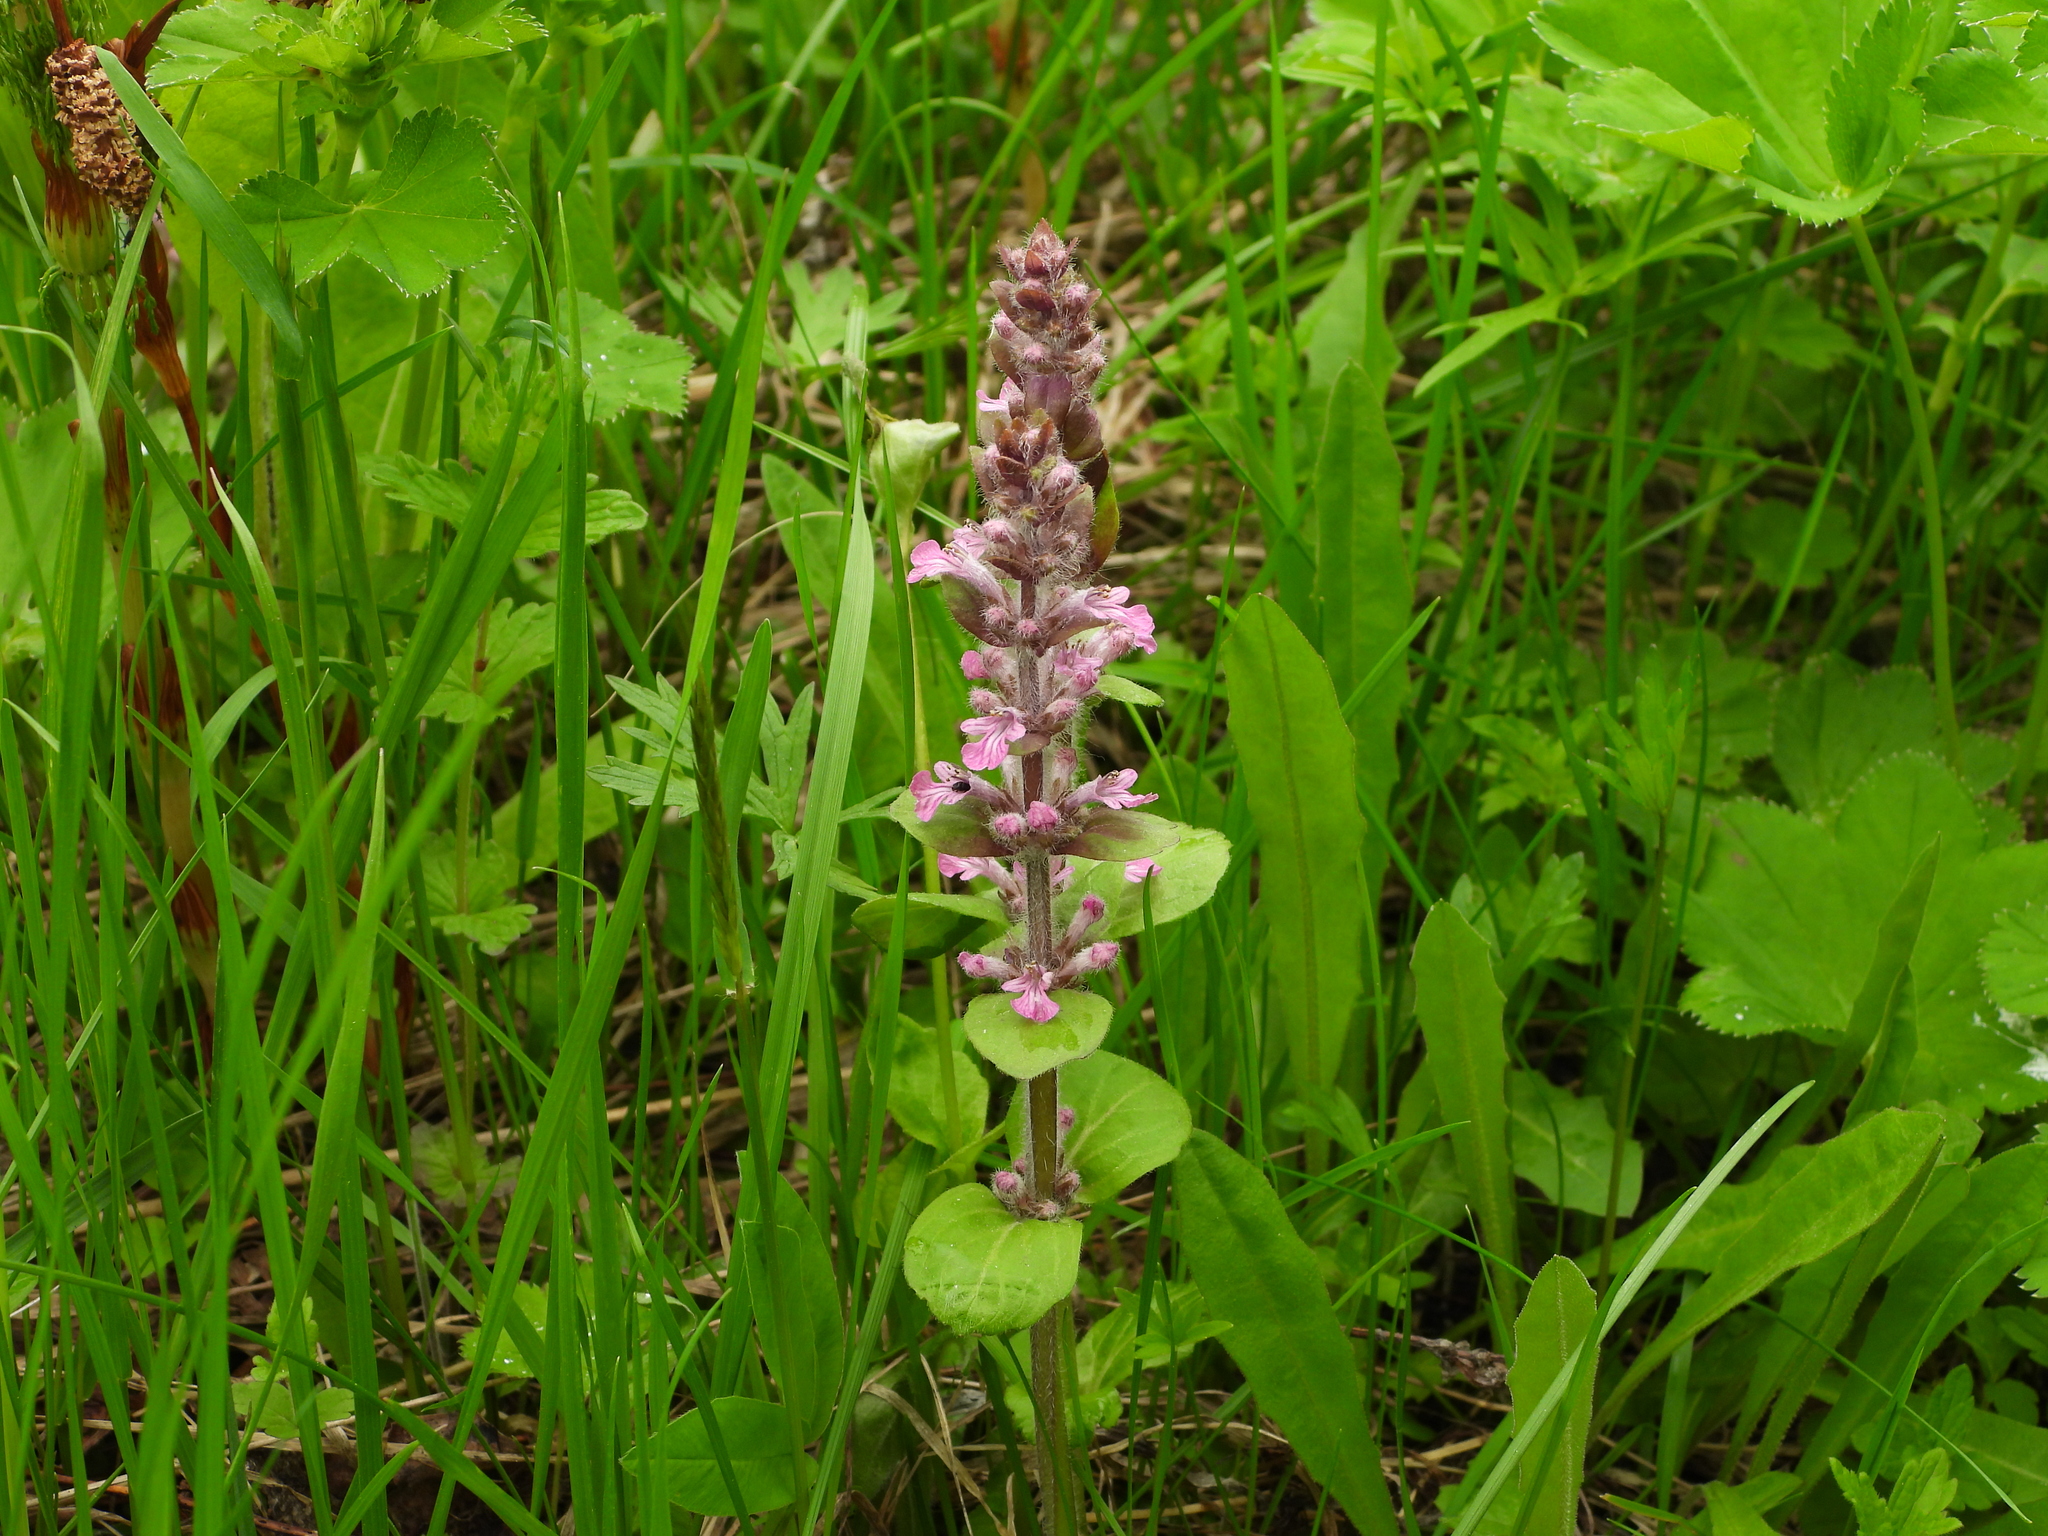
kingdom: Plantae
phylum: Tracheophyta
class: Magnoliopsida
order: Lamiales
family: Lamiaceae
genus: Ajuga
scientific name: Ajuga reptans
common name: Bugle
